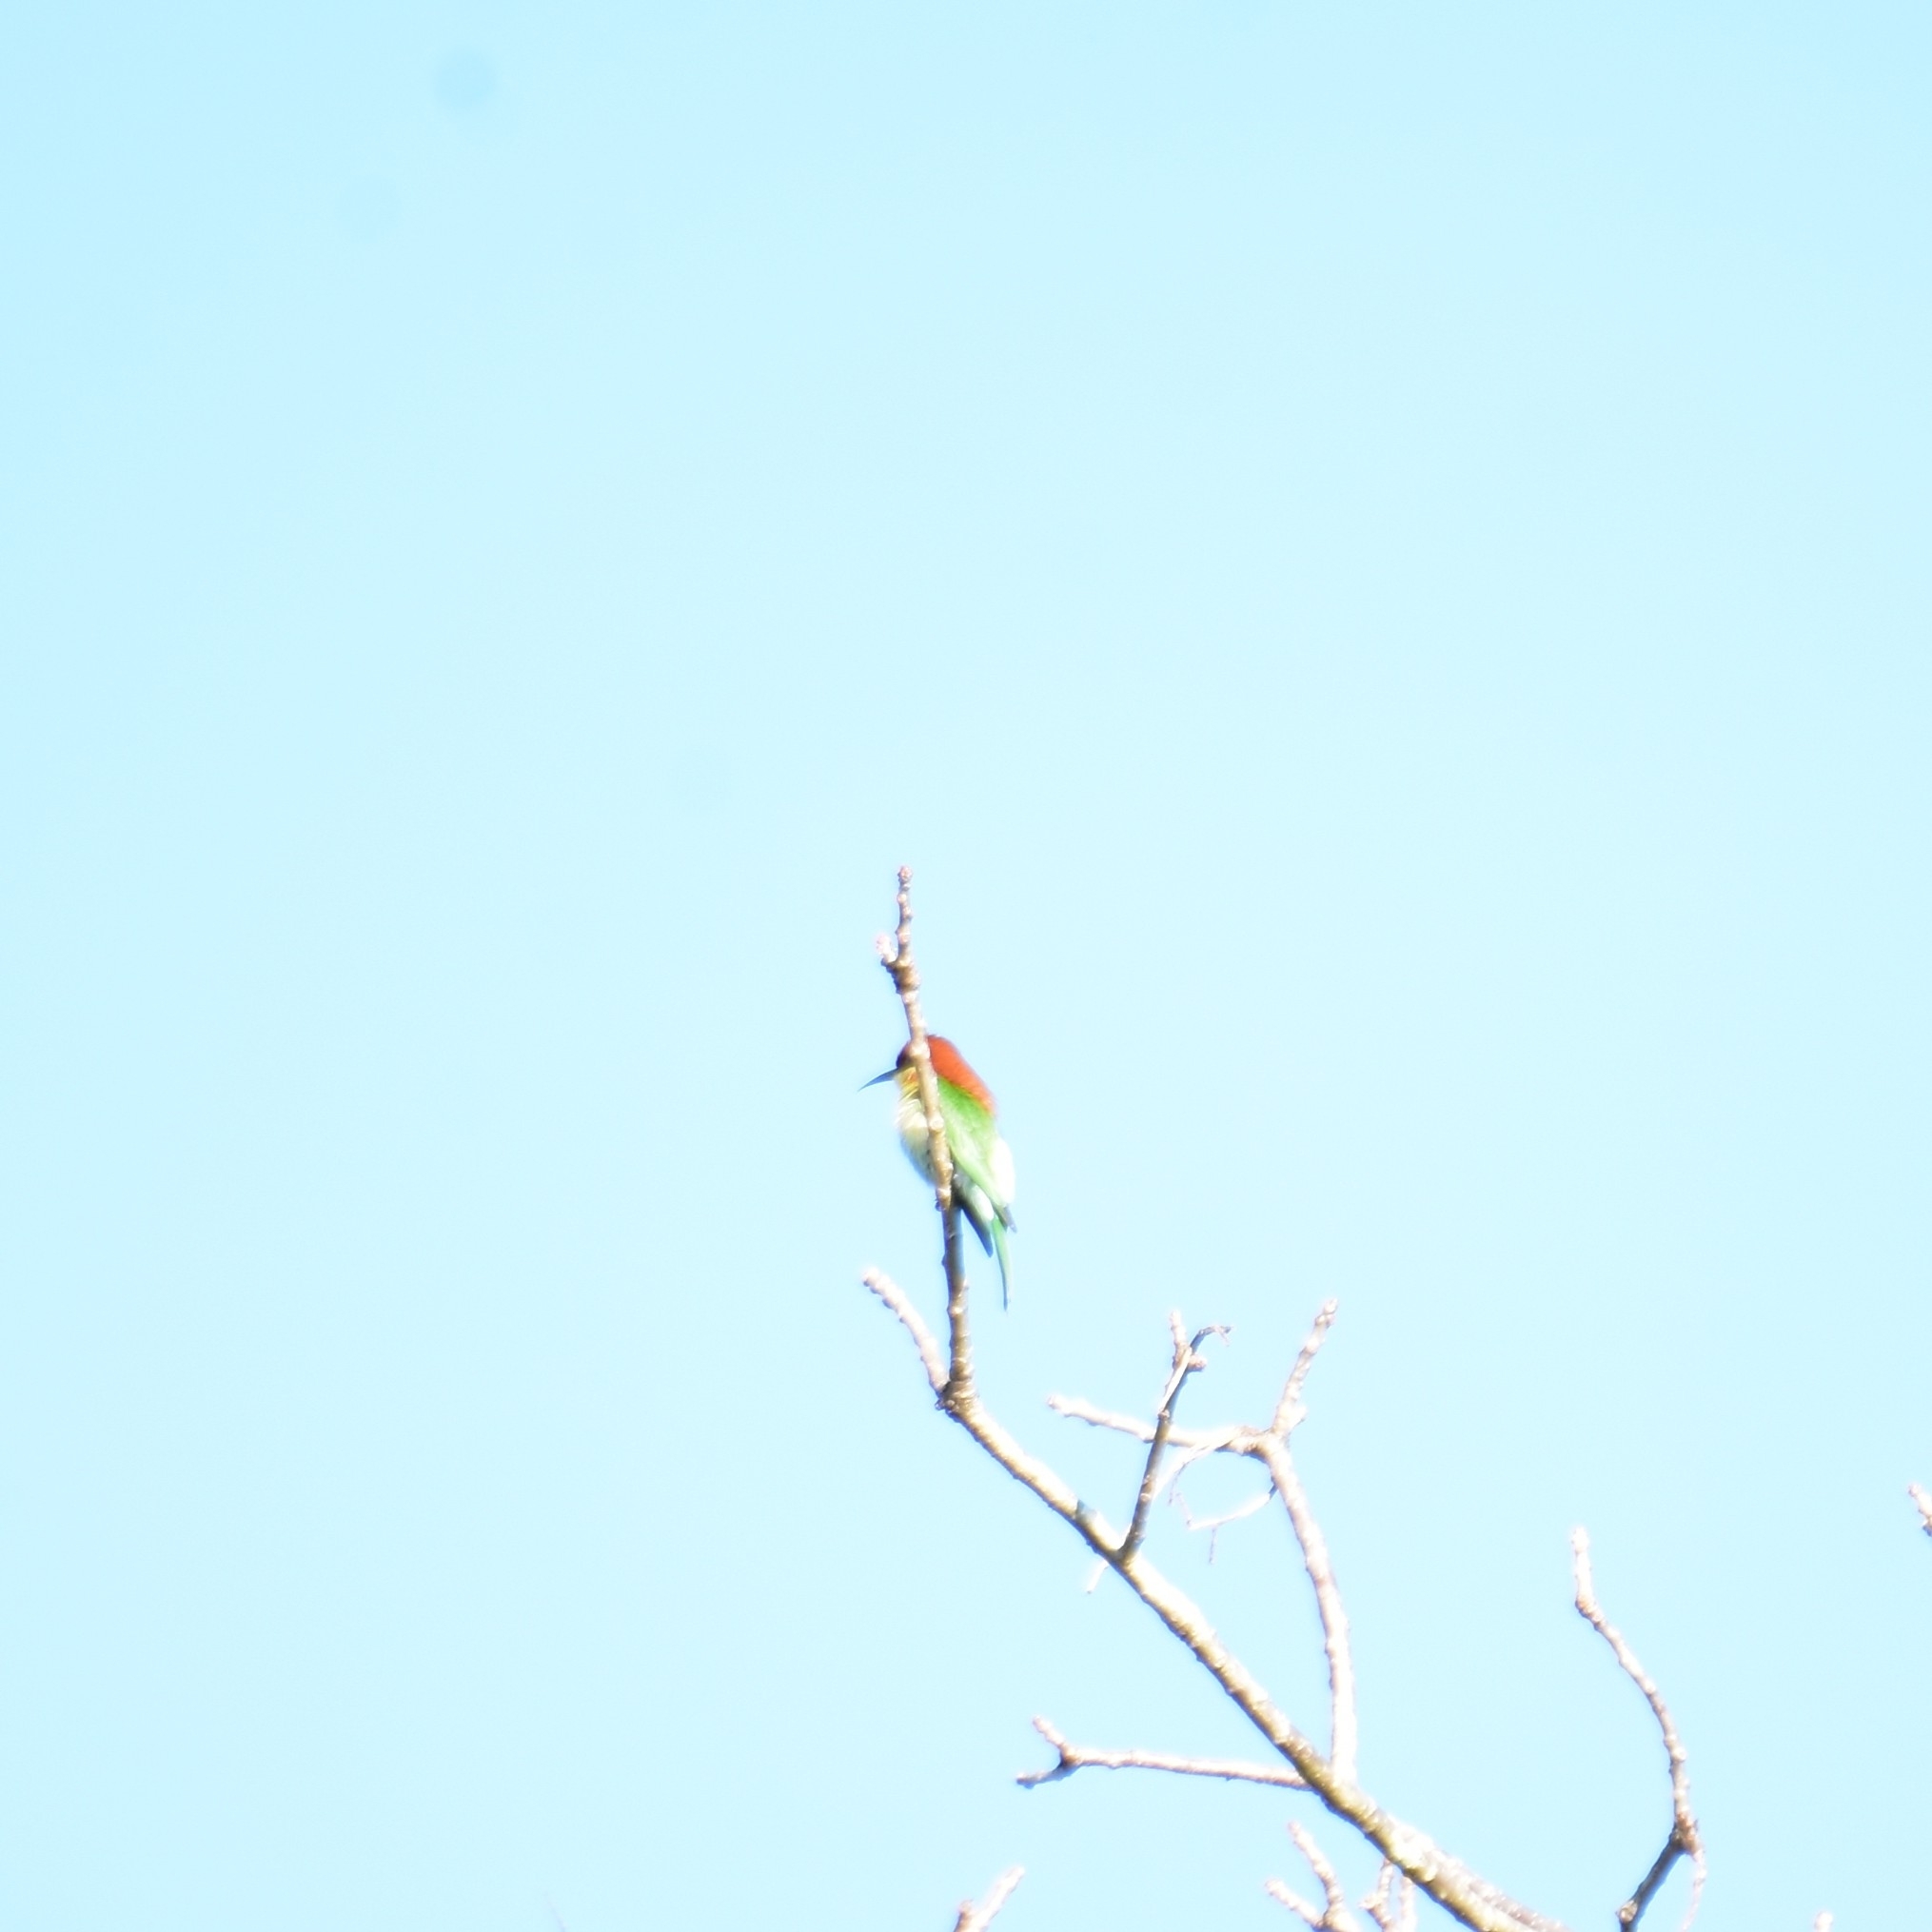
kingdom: Animalia
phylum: Chordata
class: Aves
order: Coraciiformes
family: Meropidae
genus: Merops
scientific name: Merops leschenaulti
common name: Chestnut-headed bee-eater
